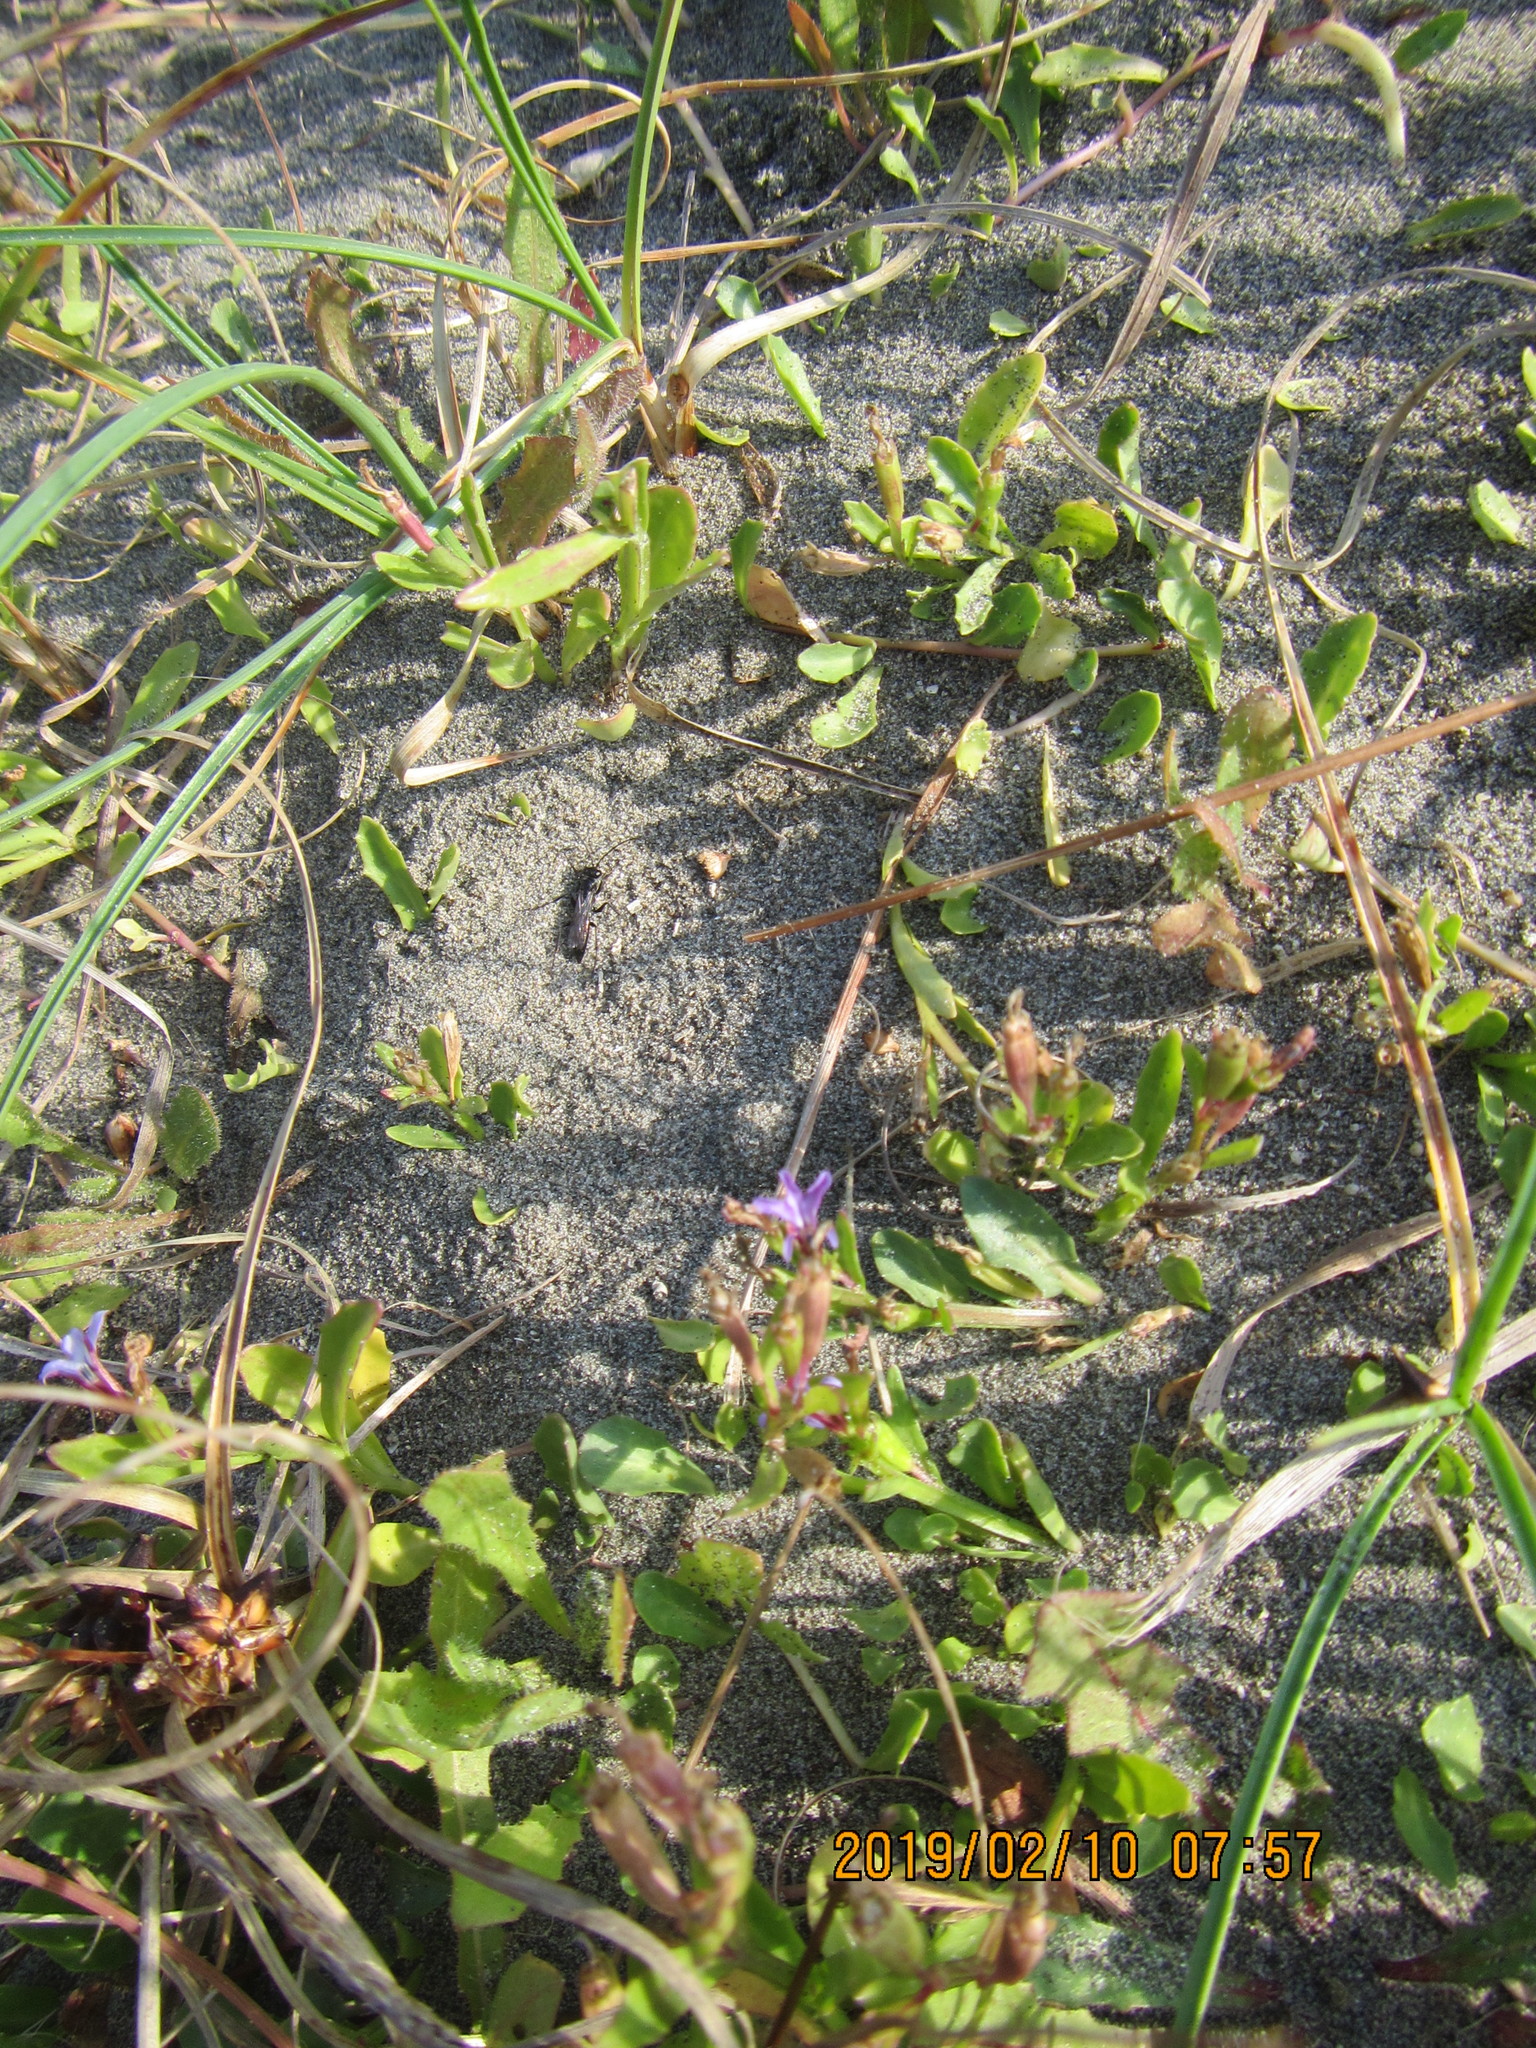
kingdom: Animalia
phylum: Arthropoda
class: Insecta
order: Hymenoptera
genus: Trichocurgus
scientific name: Trichocurgus
